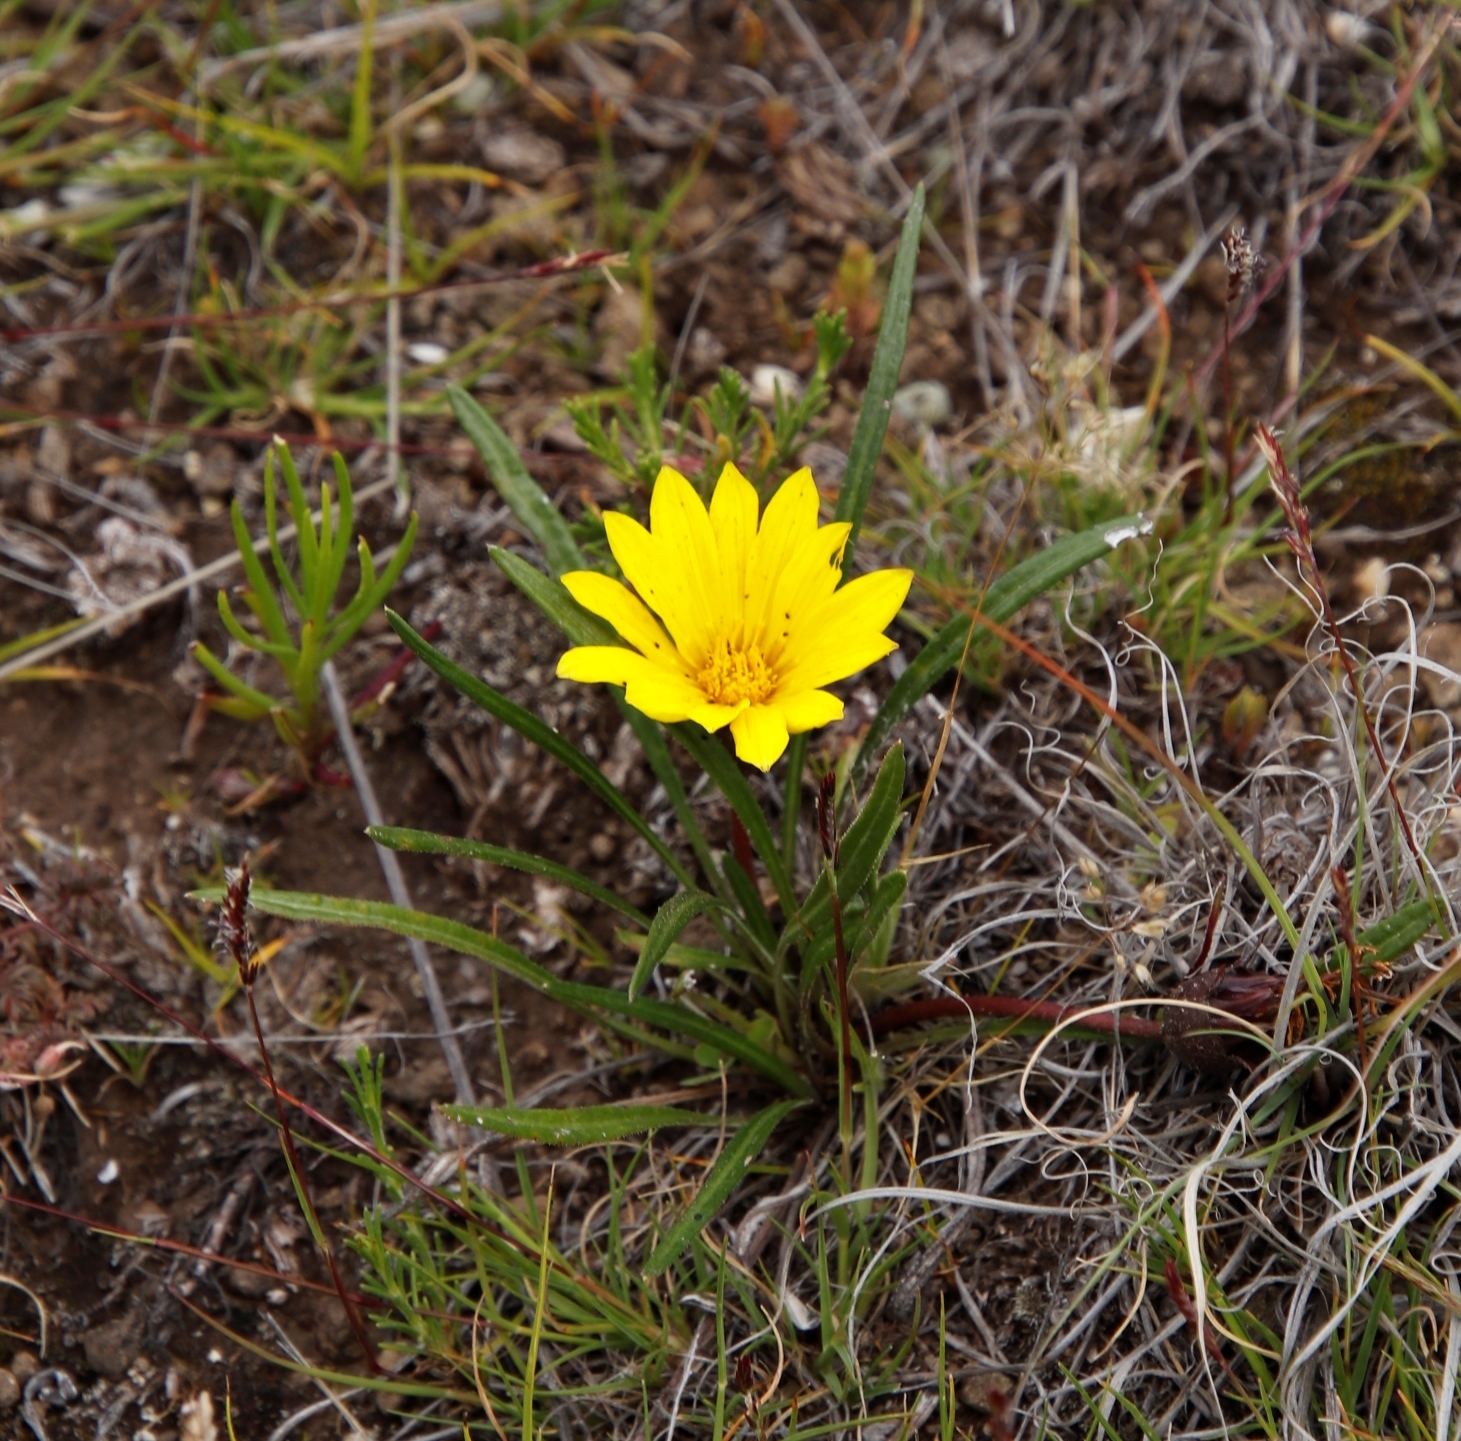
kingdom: Plantae
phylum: Tracheophyta
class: Magnoliopsida
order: Asterales
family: Asteraceae
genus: Gazania
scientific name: Gazania krebsiana
